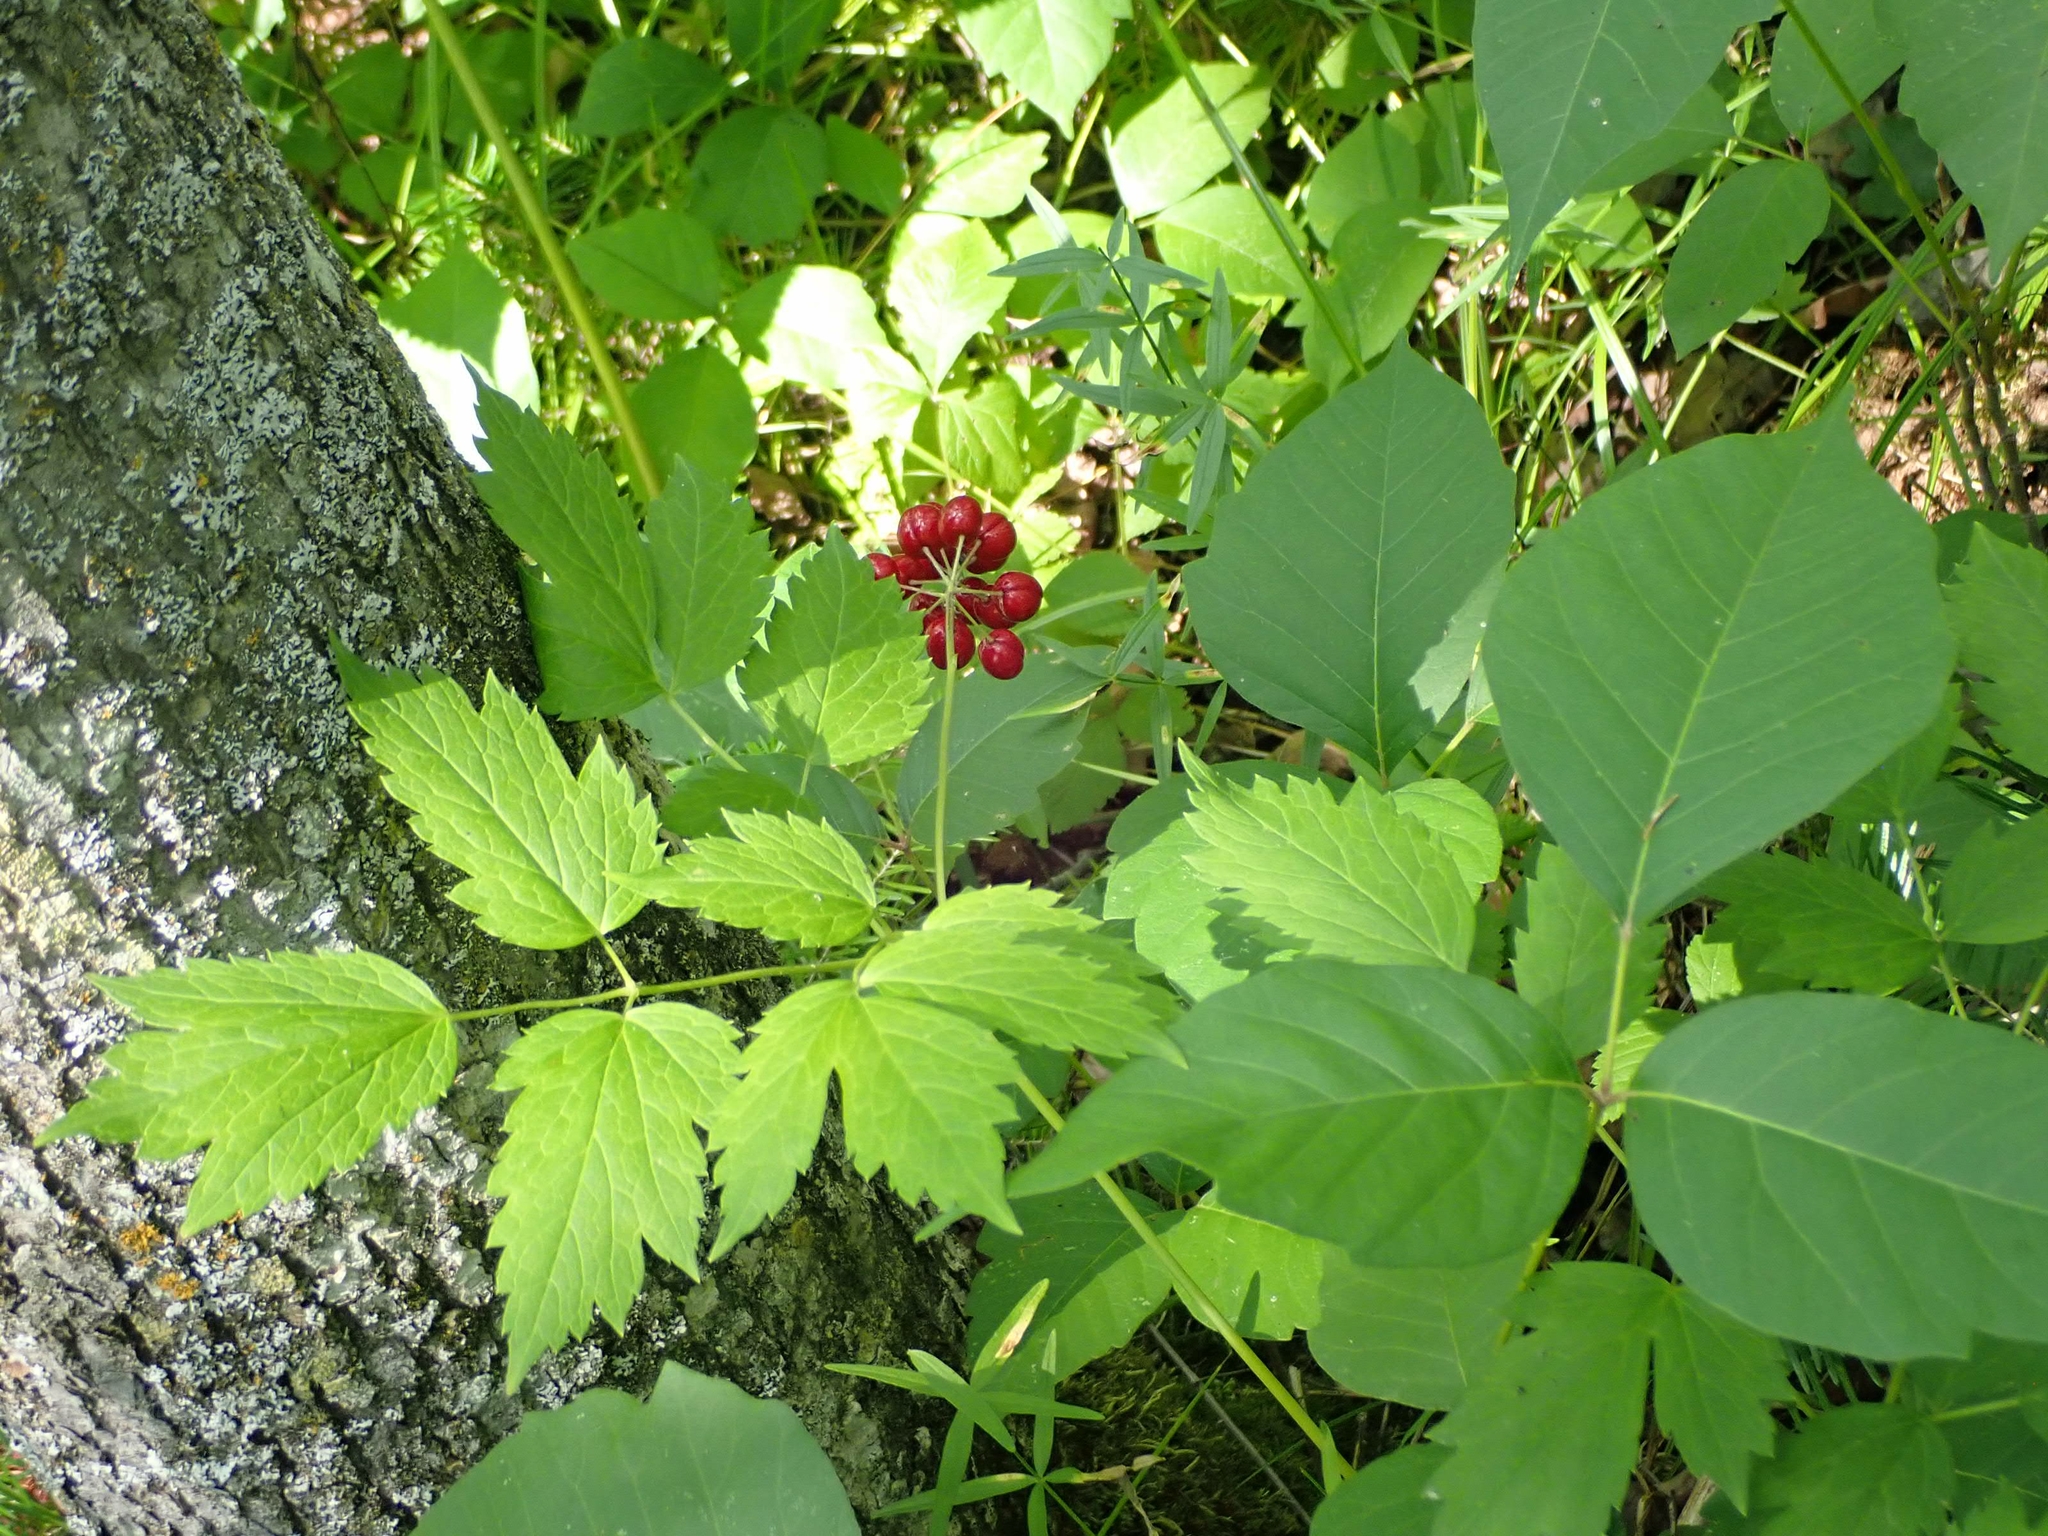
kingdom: Plantae
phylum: Tracheophyta
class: Magnoliopsida
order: Ranunculales
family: Ranunculaceae
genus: Actaea
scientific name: Actaea rubra
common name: Red baneberry
